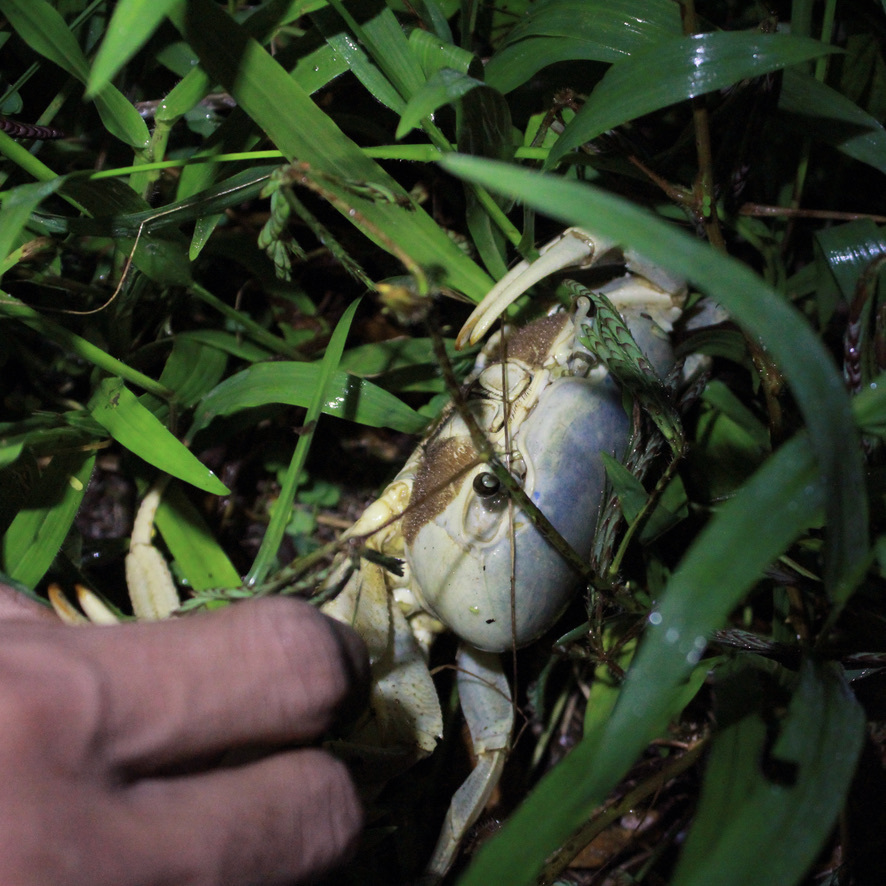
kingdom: Animalia
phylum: Arthropoda
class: Malacostraca
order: Decapoda
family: Gecarcinidae
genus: Cardisoma
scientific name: Cardisoma guanhumi
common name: Great land crab
